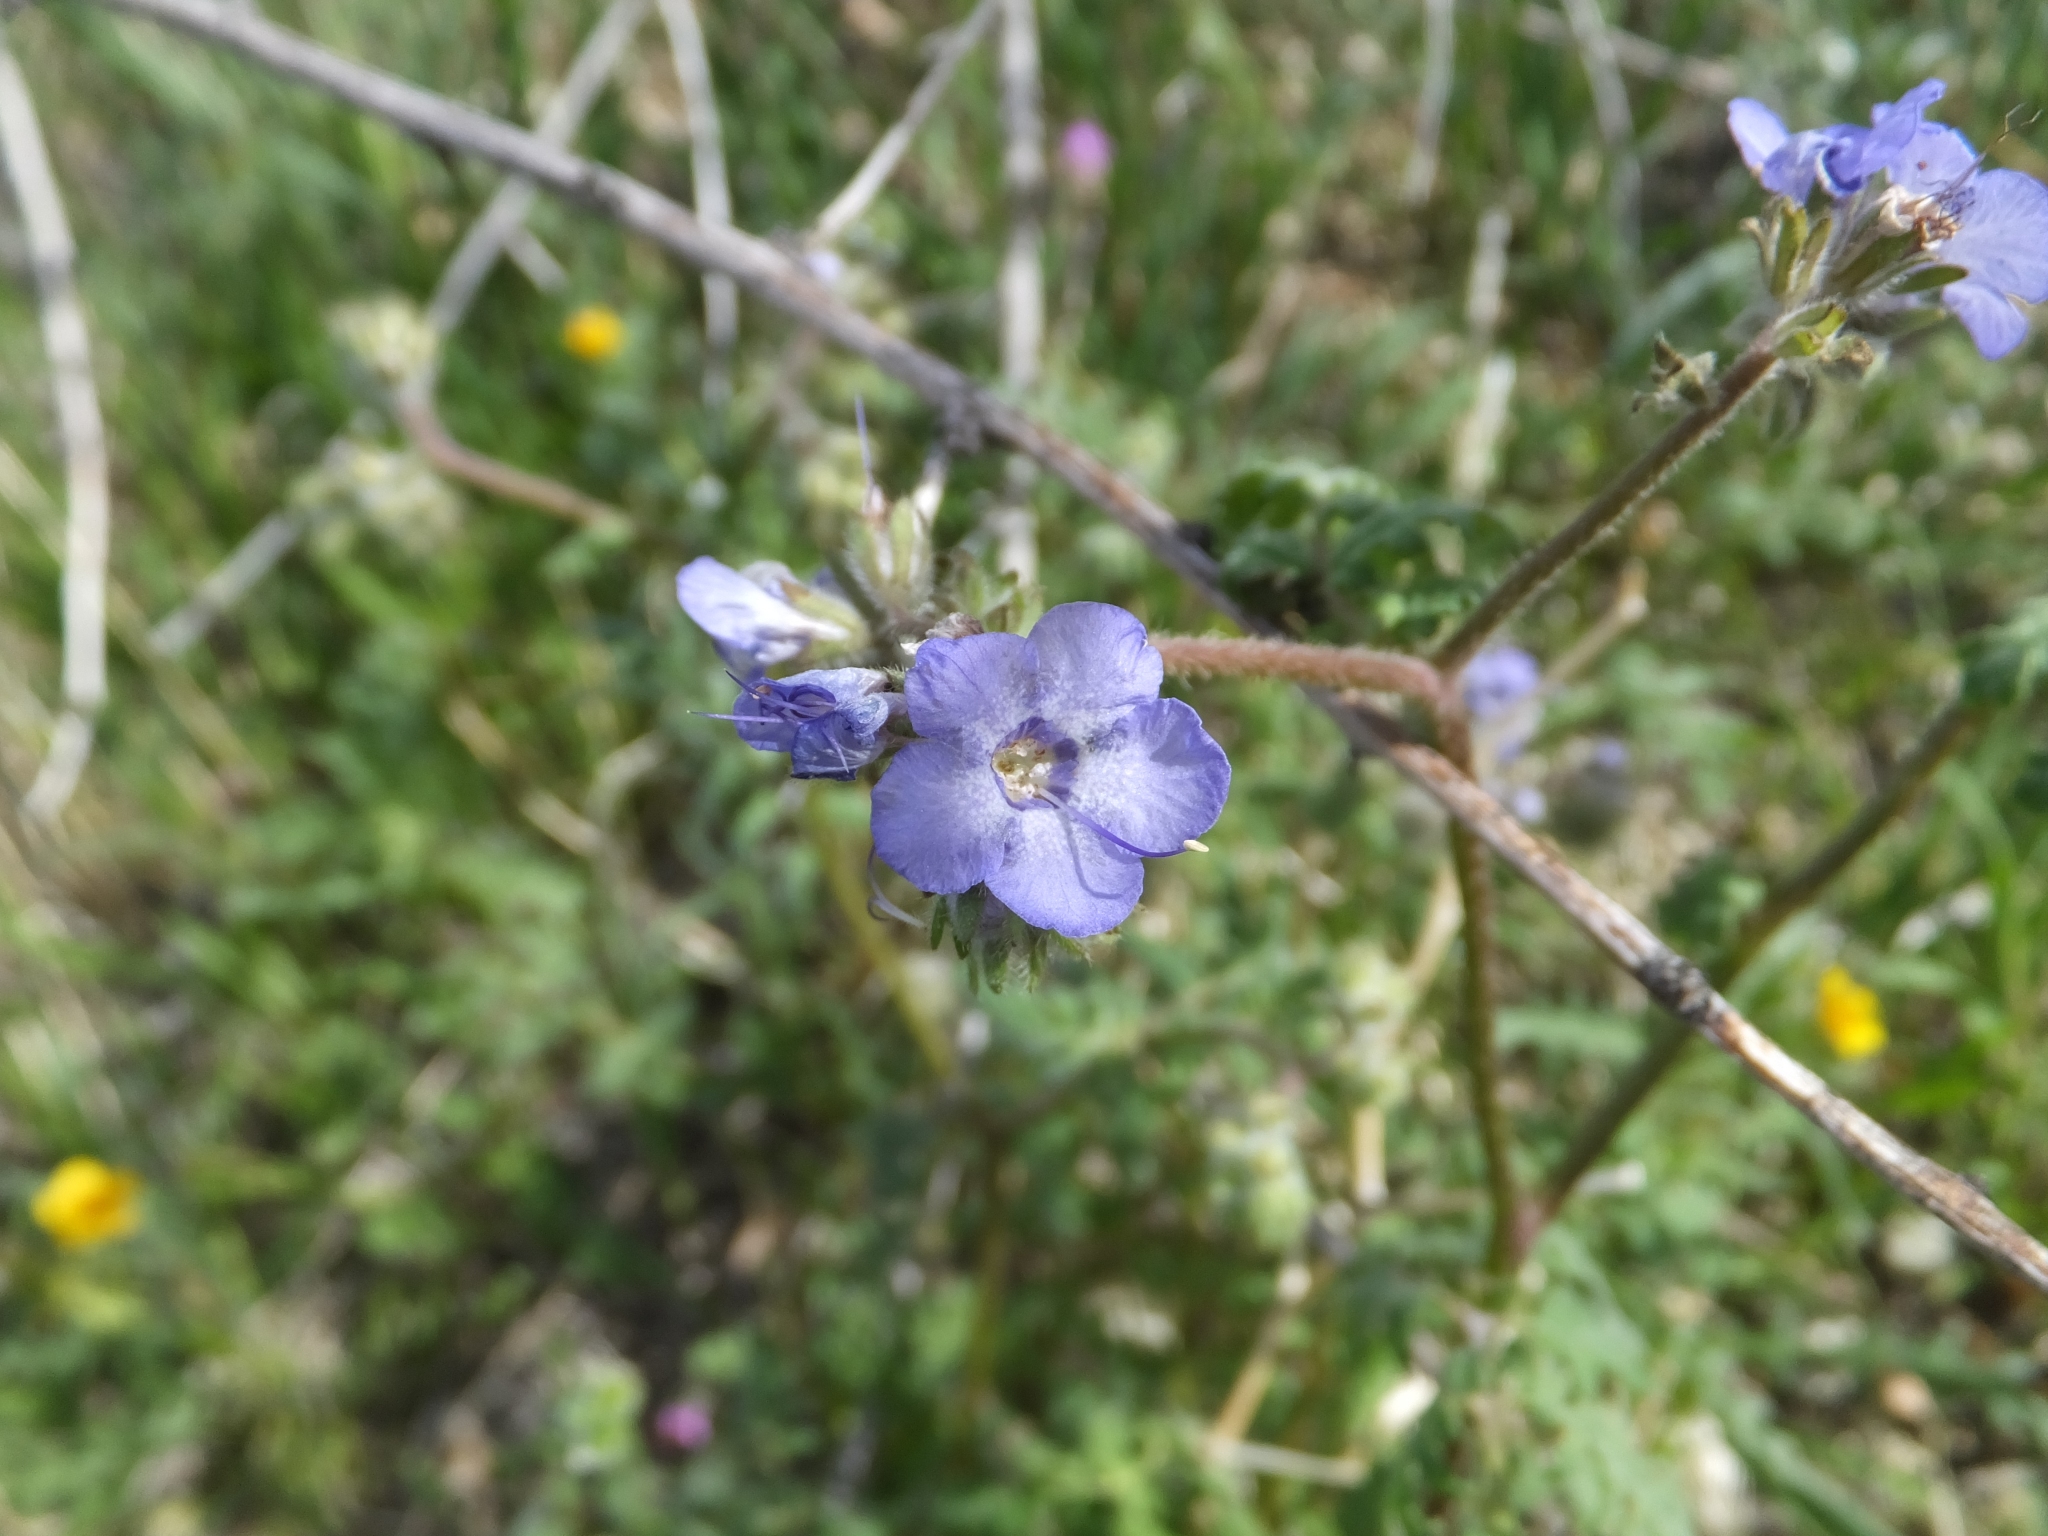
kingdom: Plantae
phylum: Tracheophyta
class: Magnoliopsida
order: Boraginales
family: Hydrophyllaceae
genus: Phacelia
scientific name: Phacelia distans
